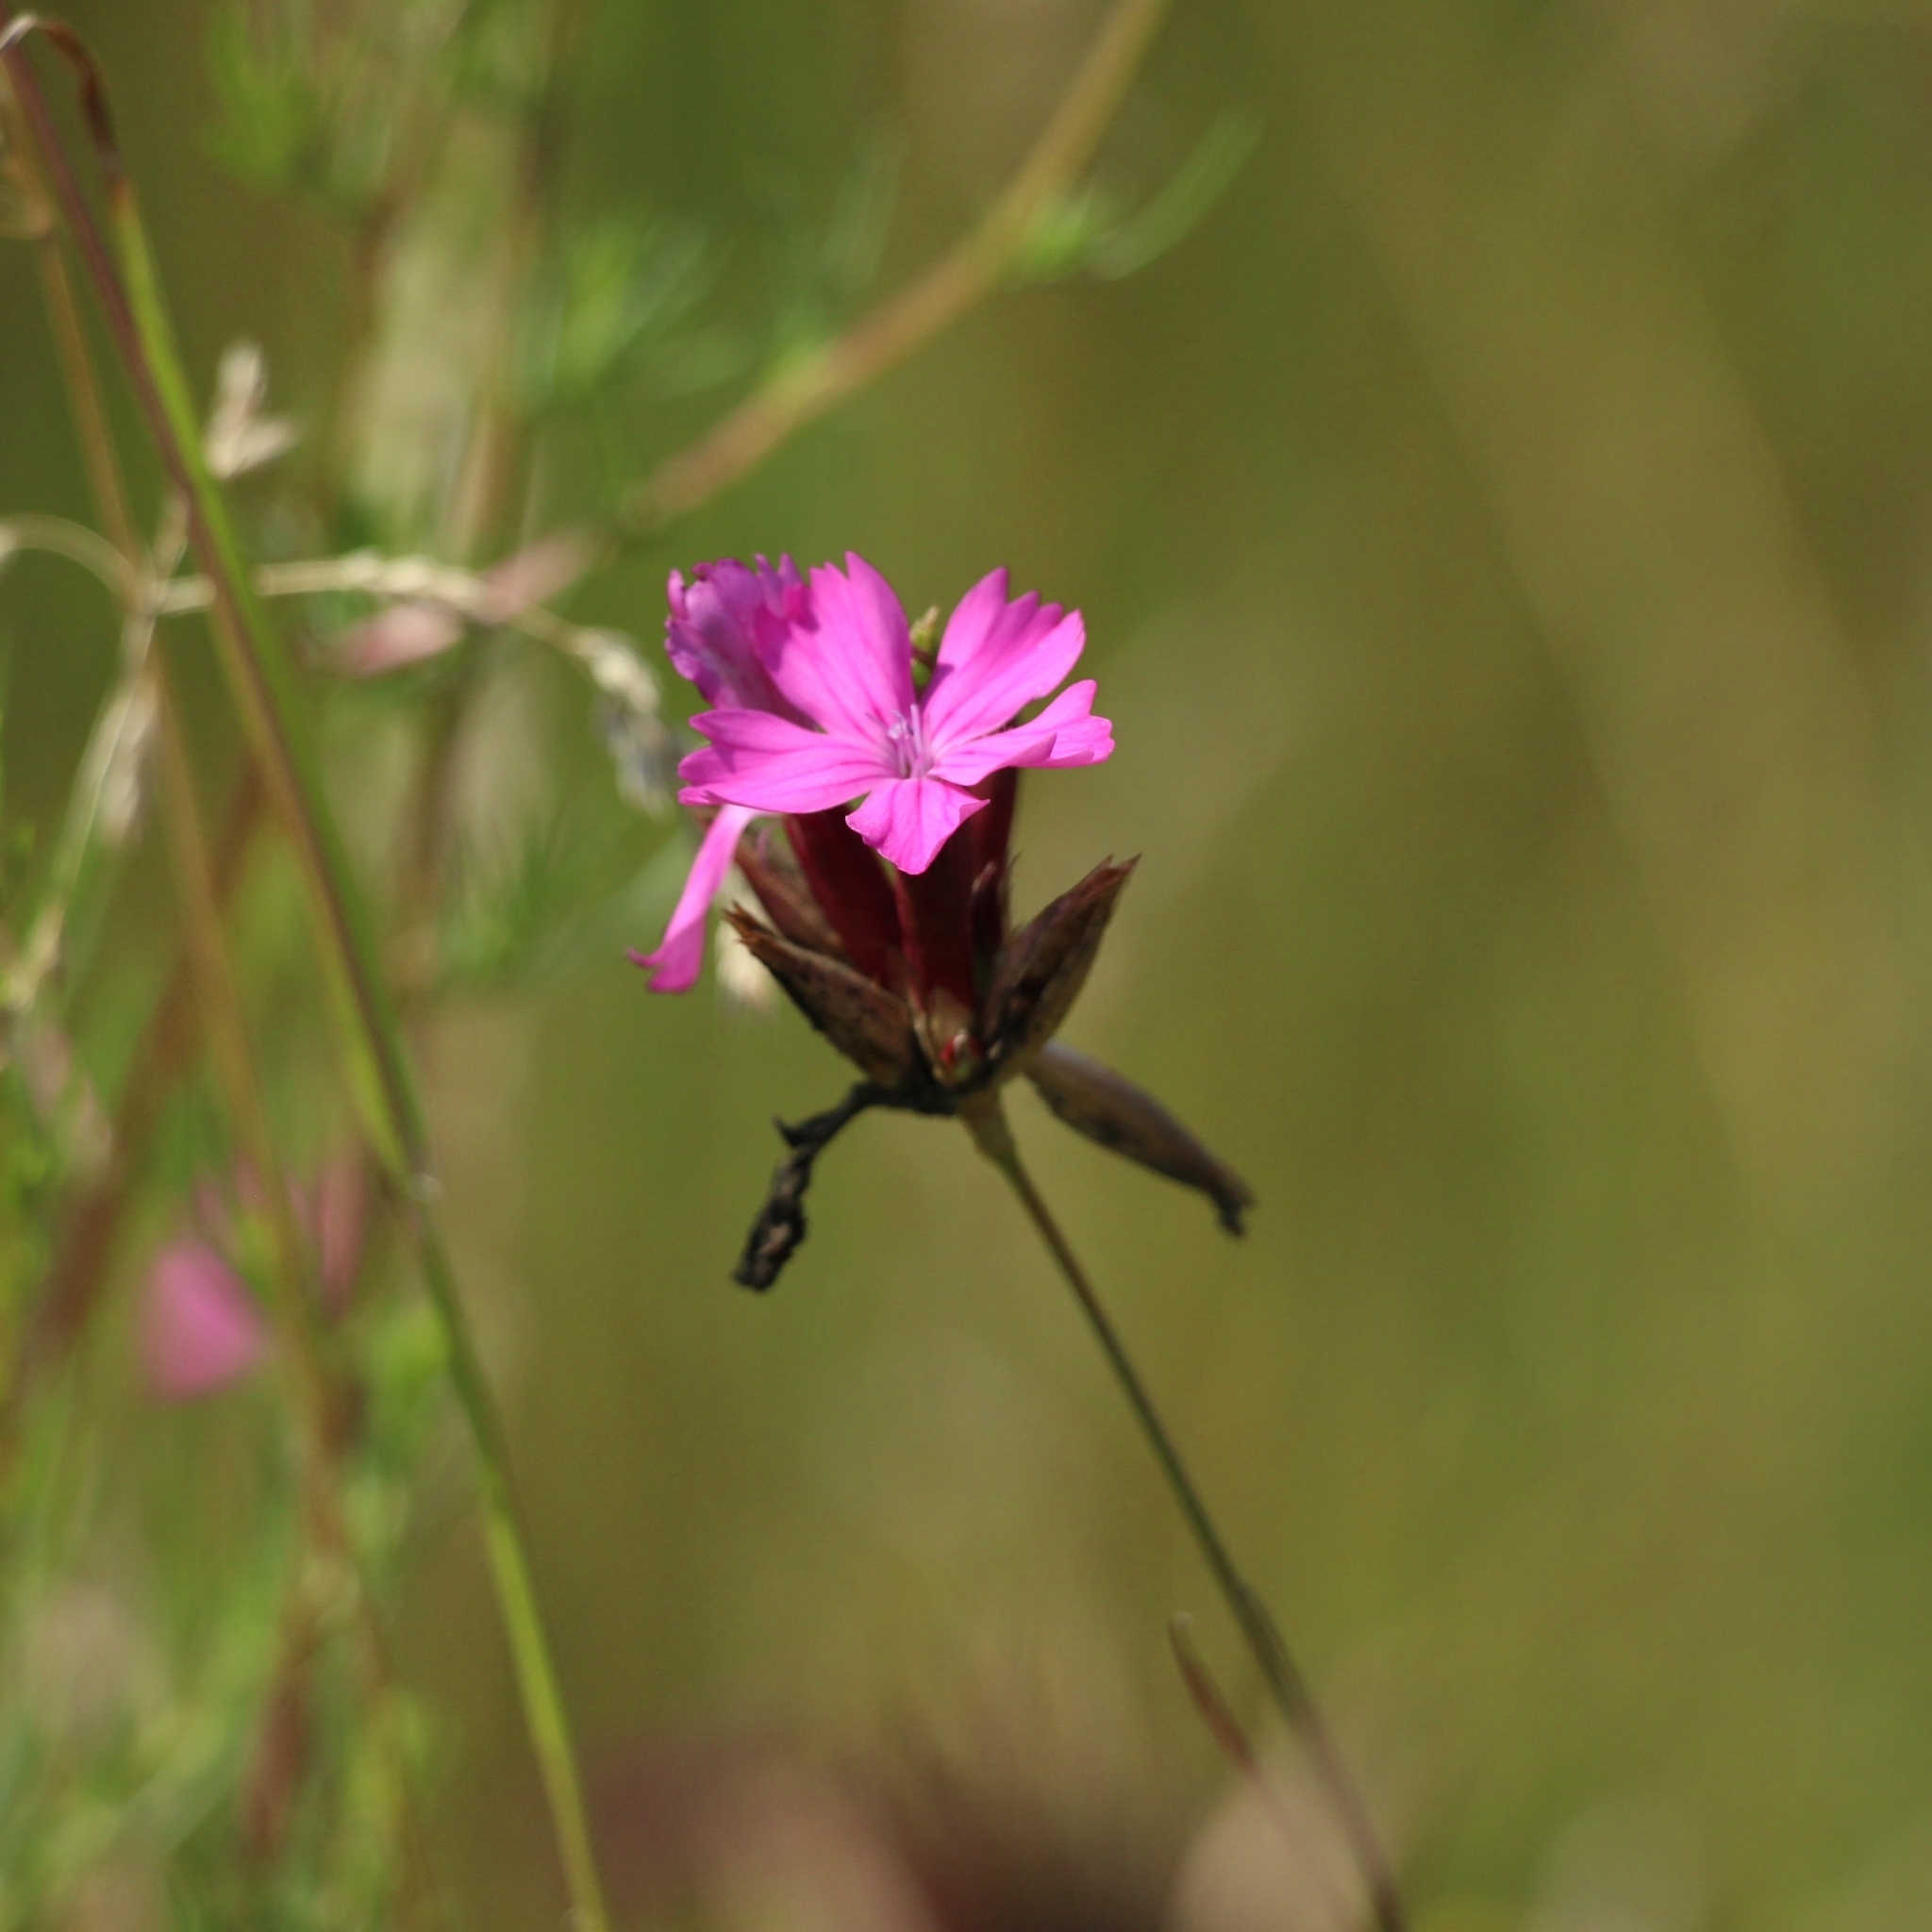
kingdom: Plantae
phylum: Tracheophyta
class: Magnoliopsida
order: Caryophyllales
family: Caryophyllaceae
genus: Dianthus
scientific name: Dianthus borbasii
